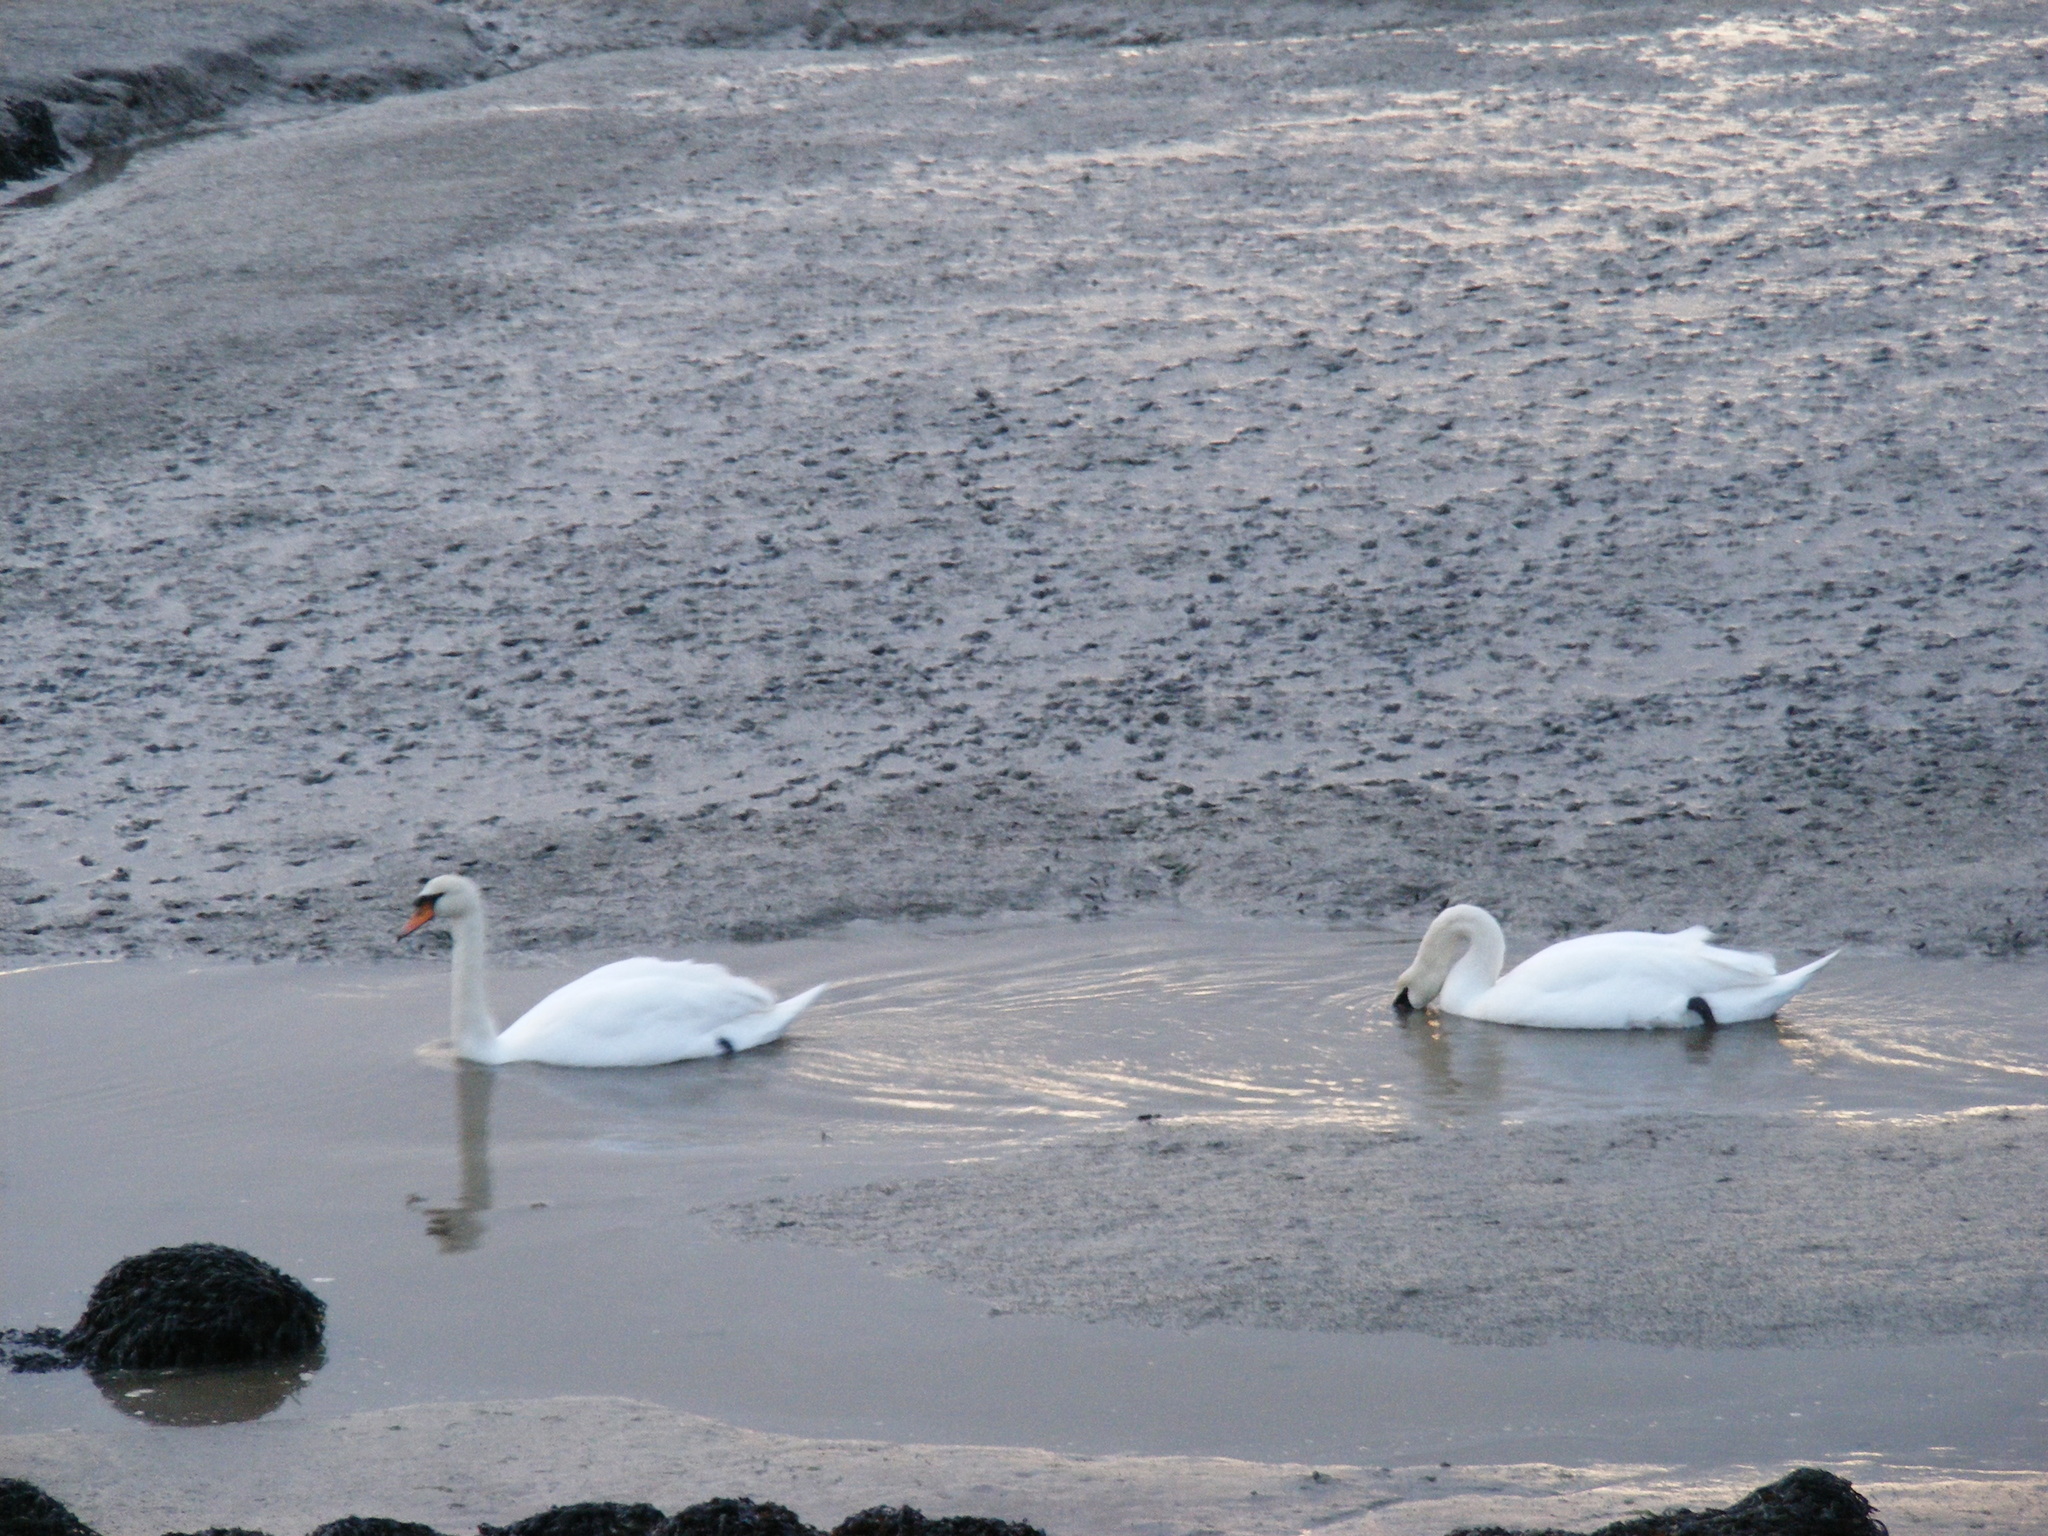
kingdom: Animalia
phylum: Chordata
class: Aves
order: Anseriformes
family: Anatidae
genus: Cygnus
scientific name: Cygnus olor
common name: Mute swan
